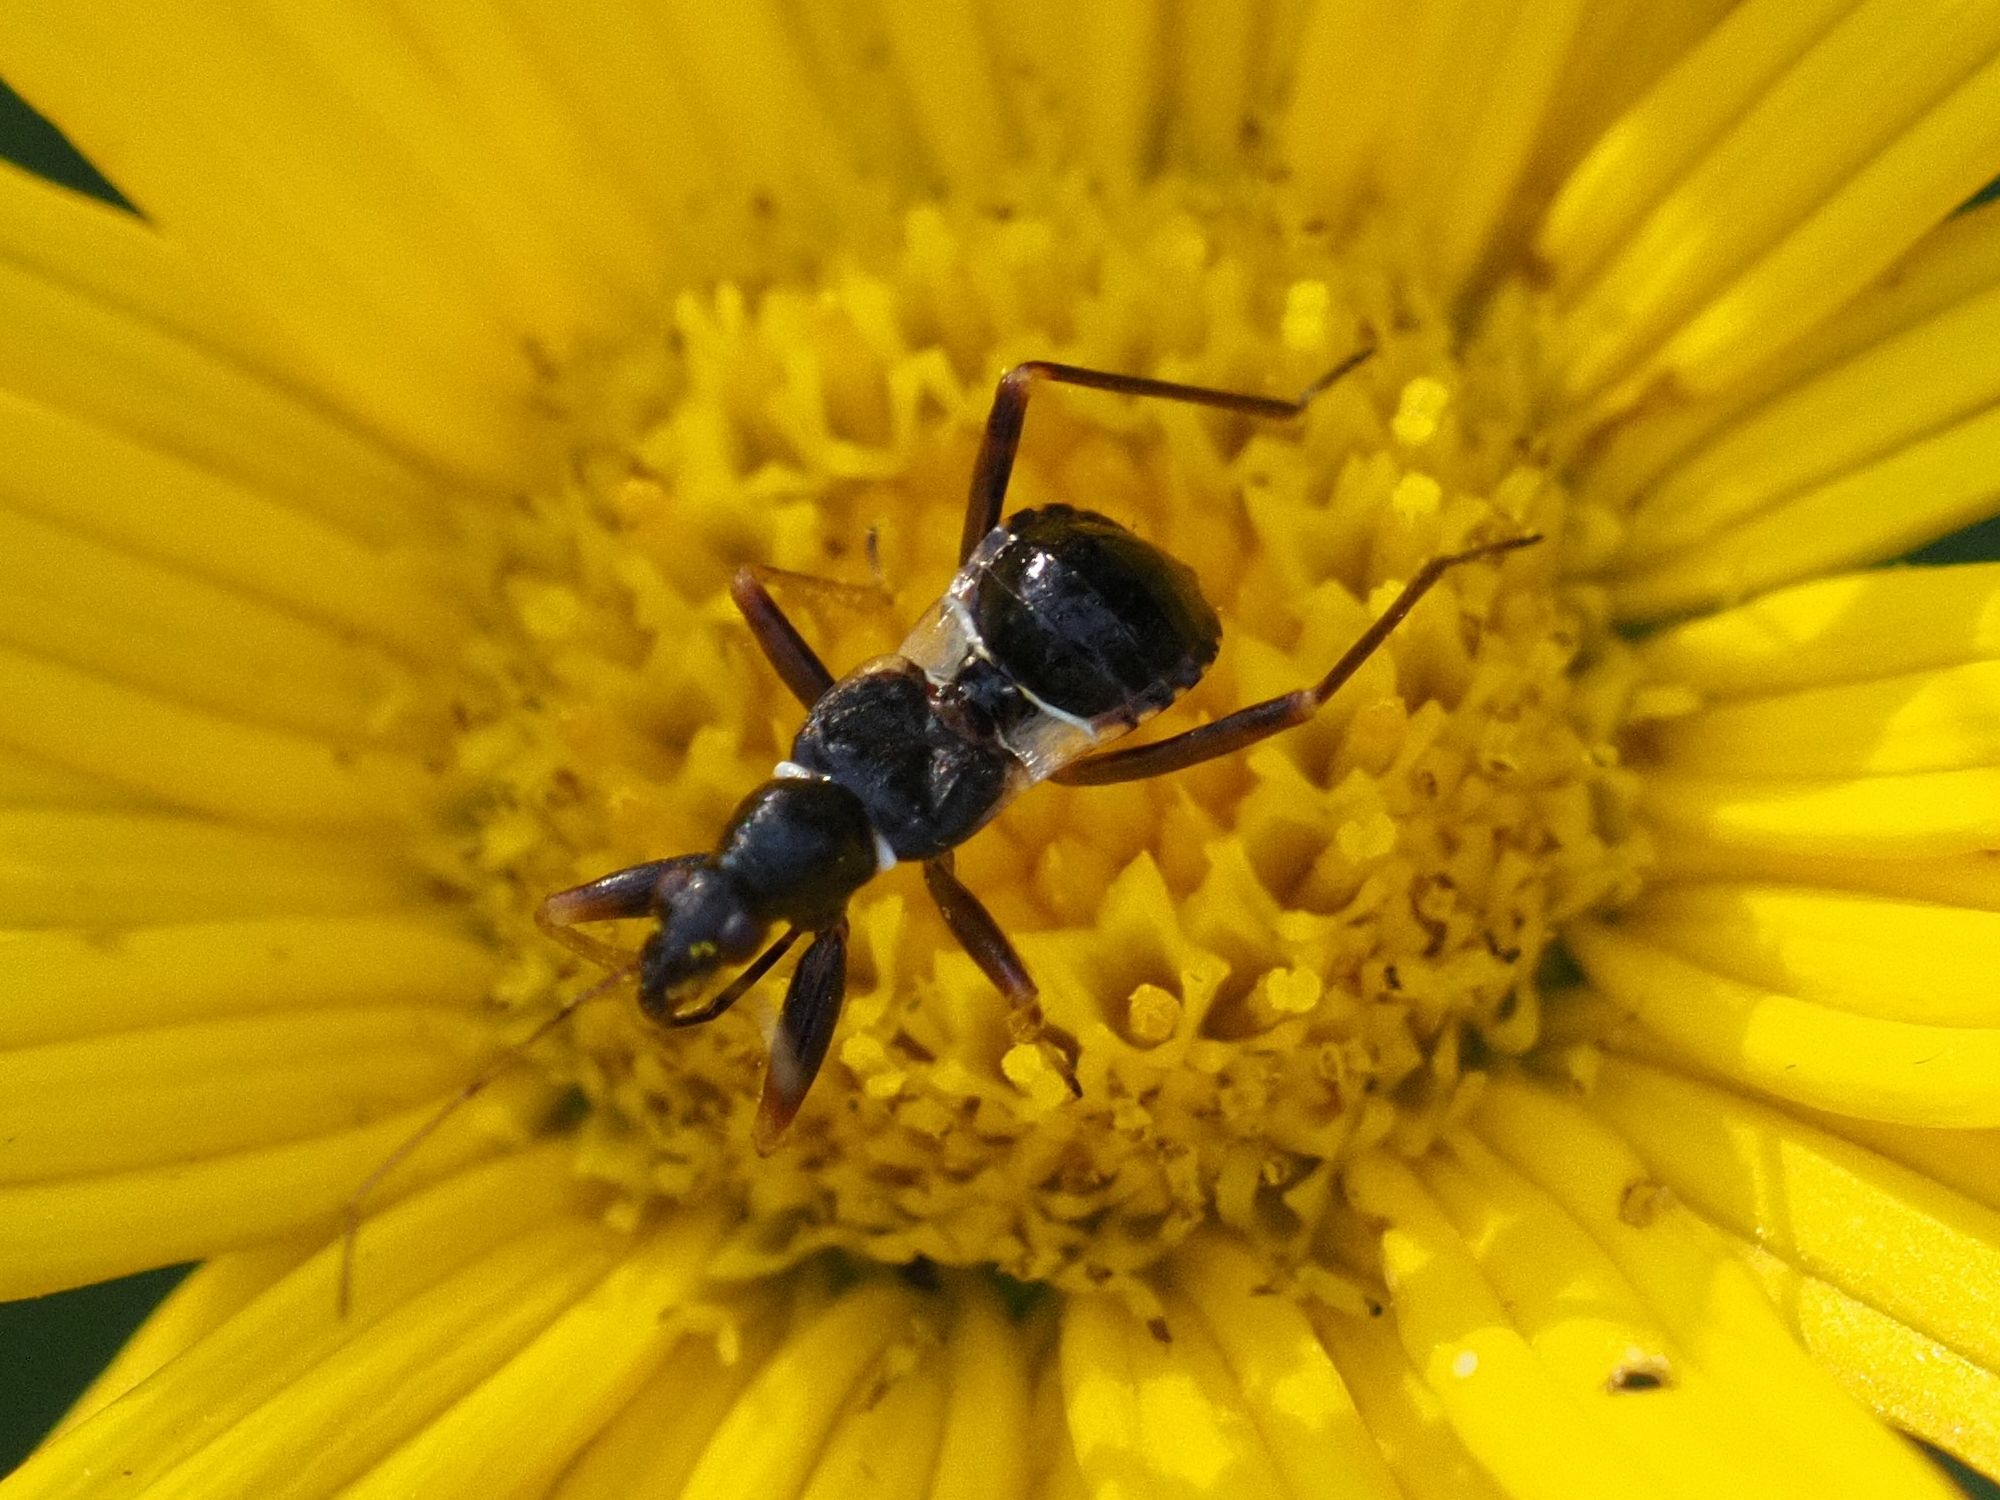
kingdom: Animalia
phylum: Arthropoda
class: Insecta
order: Hemiptera
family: Nabidae
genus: Himacerus
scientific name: Himacerus mirmicoides
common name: Ant damsel bug
